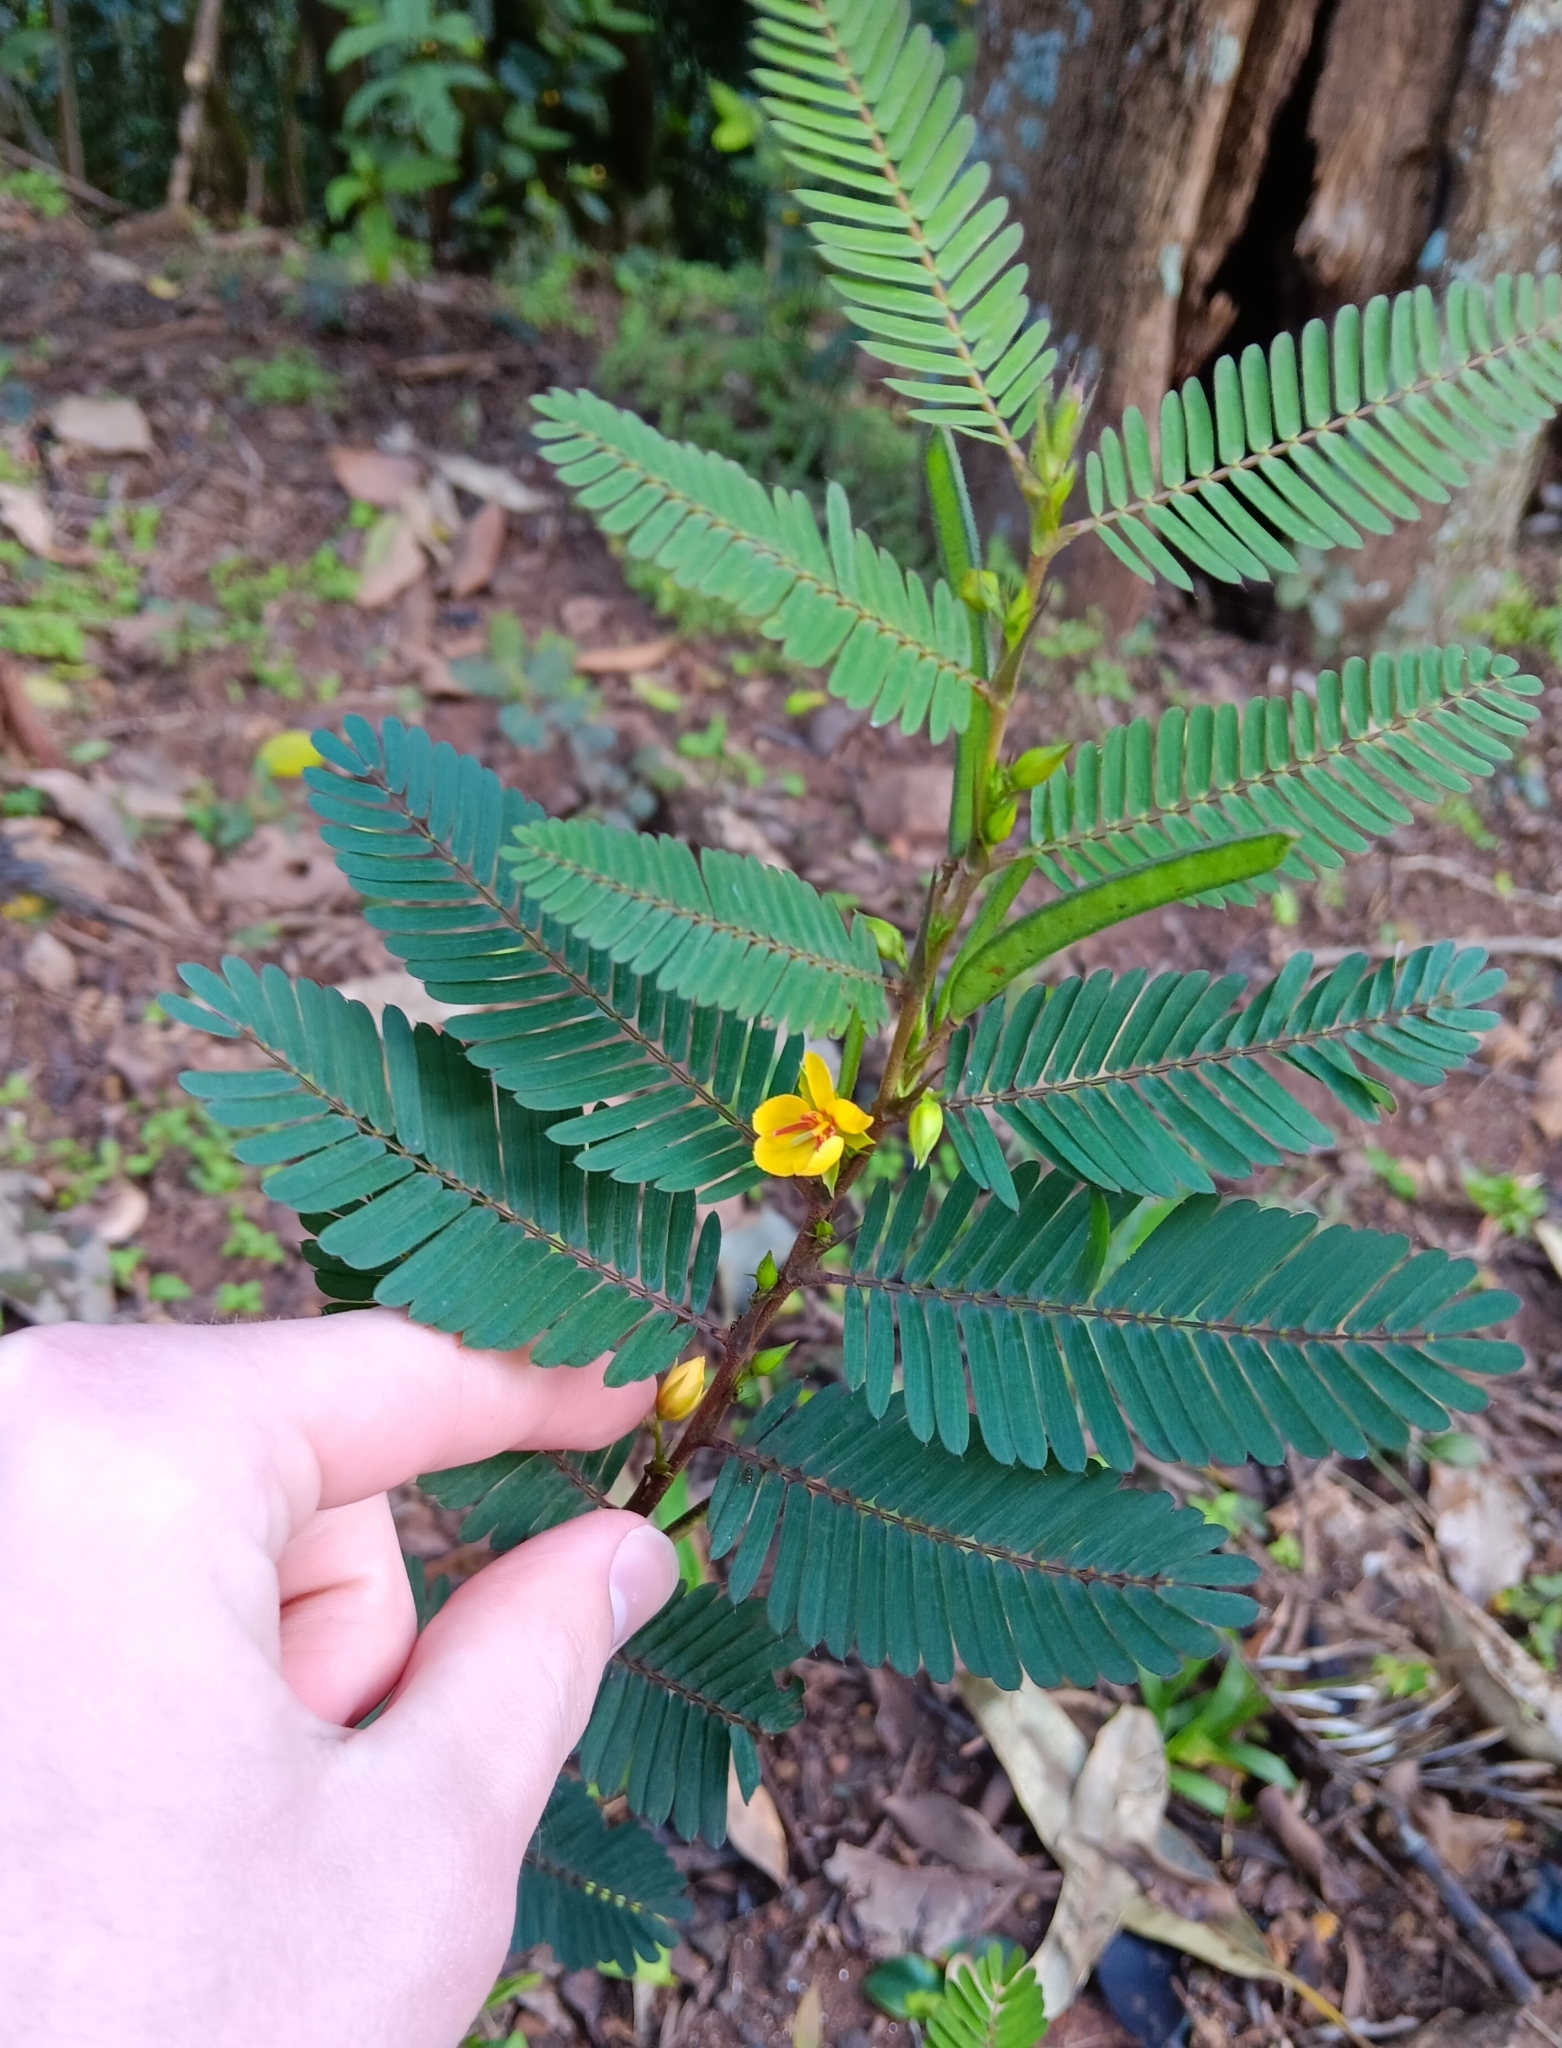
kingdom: Plantae
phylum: Tracheophyta
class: Magnoliopsida
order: Fabales
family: Fabaceae
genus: Chamaecrista
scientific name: Chamaecrista nictitans
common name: Sensitive cassia
